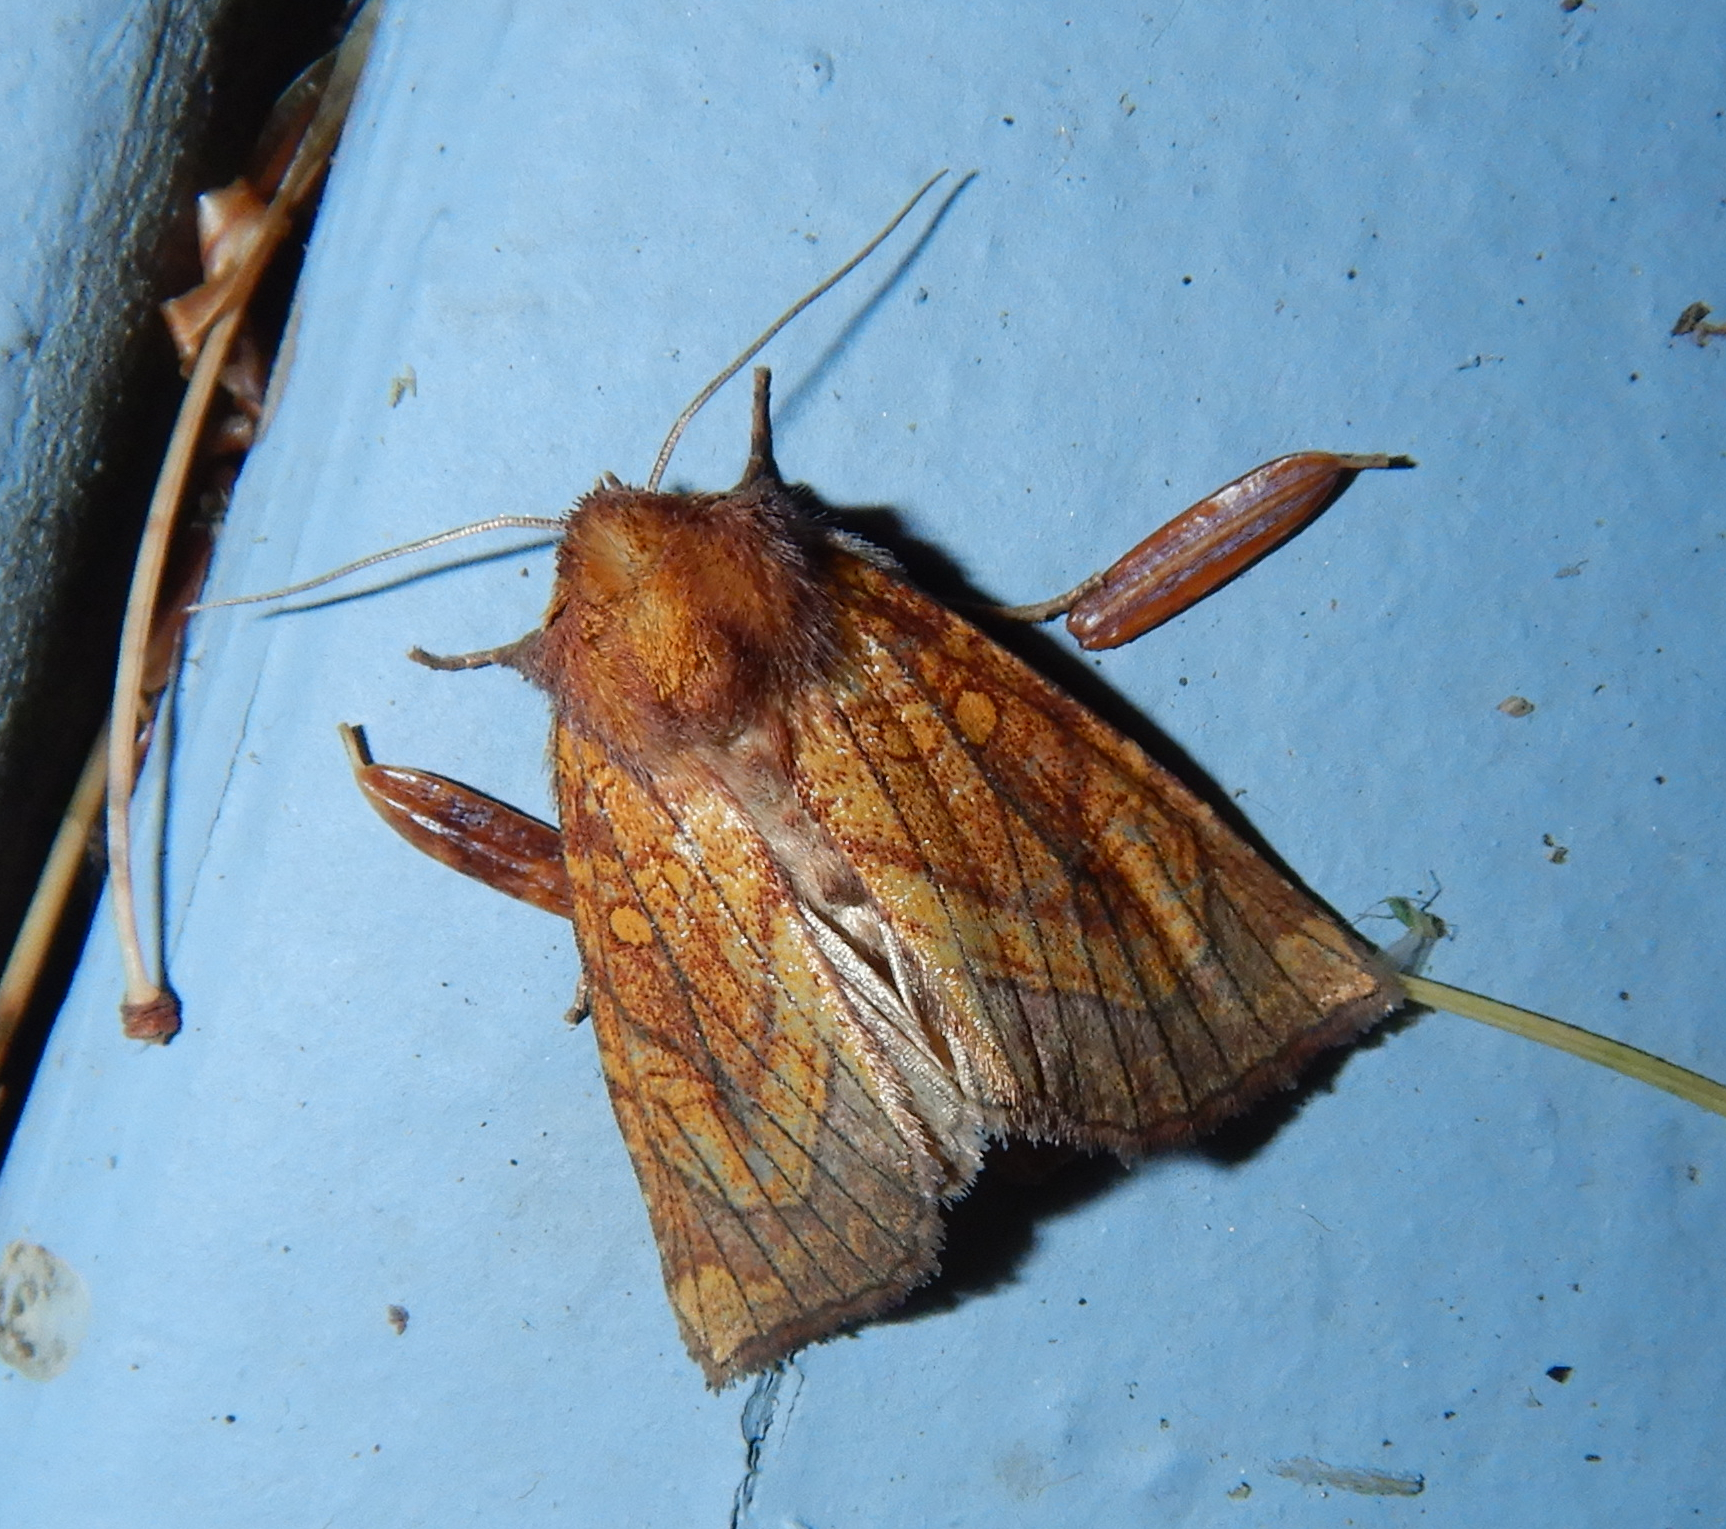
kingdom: Animalia
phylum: Arthropoda
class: Insecta
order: Lepidoptera
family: Noctuidae
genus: Papaipema
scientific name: Papaipema inquaesita
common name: Sensitive fern borer moth
